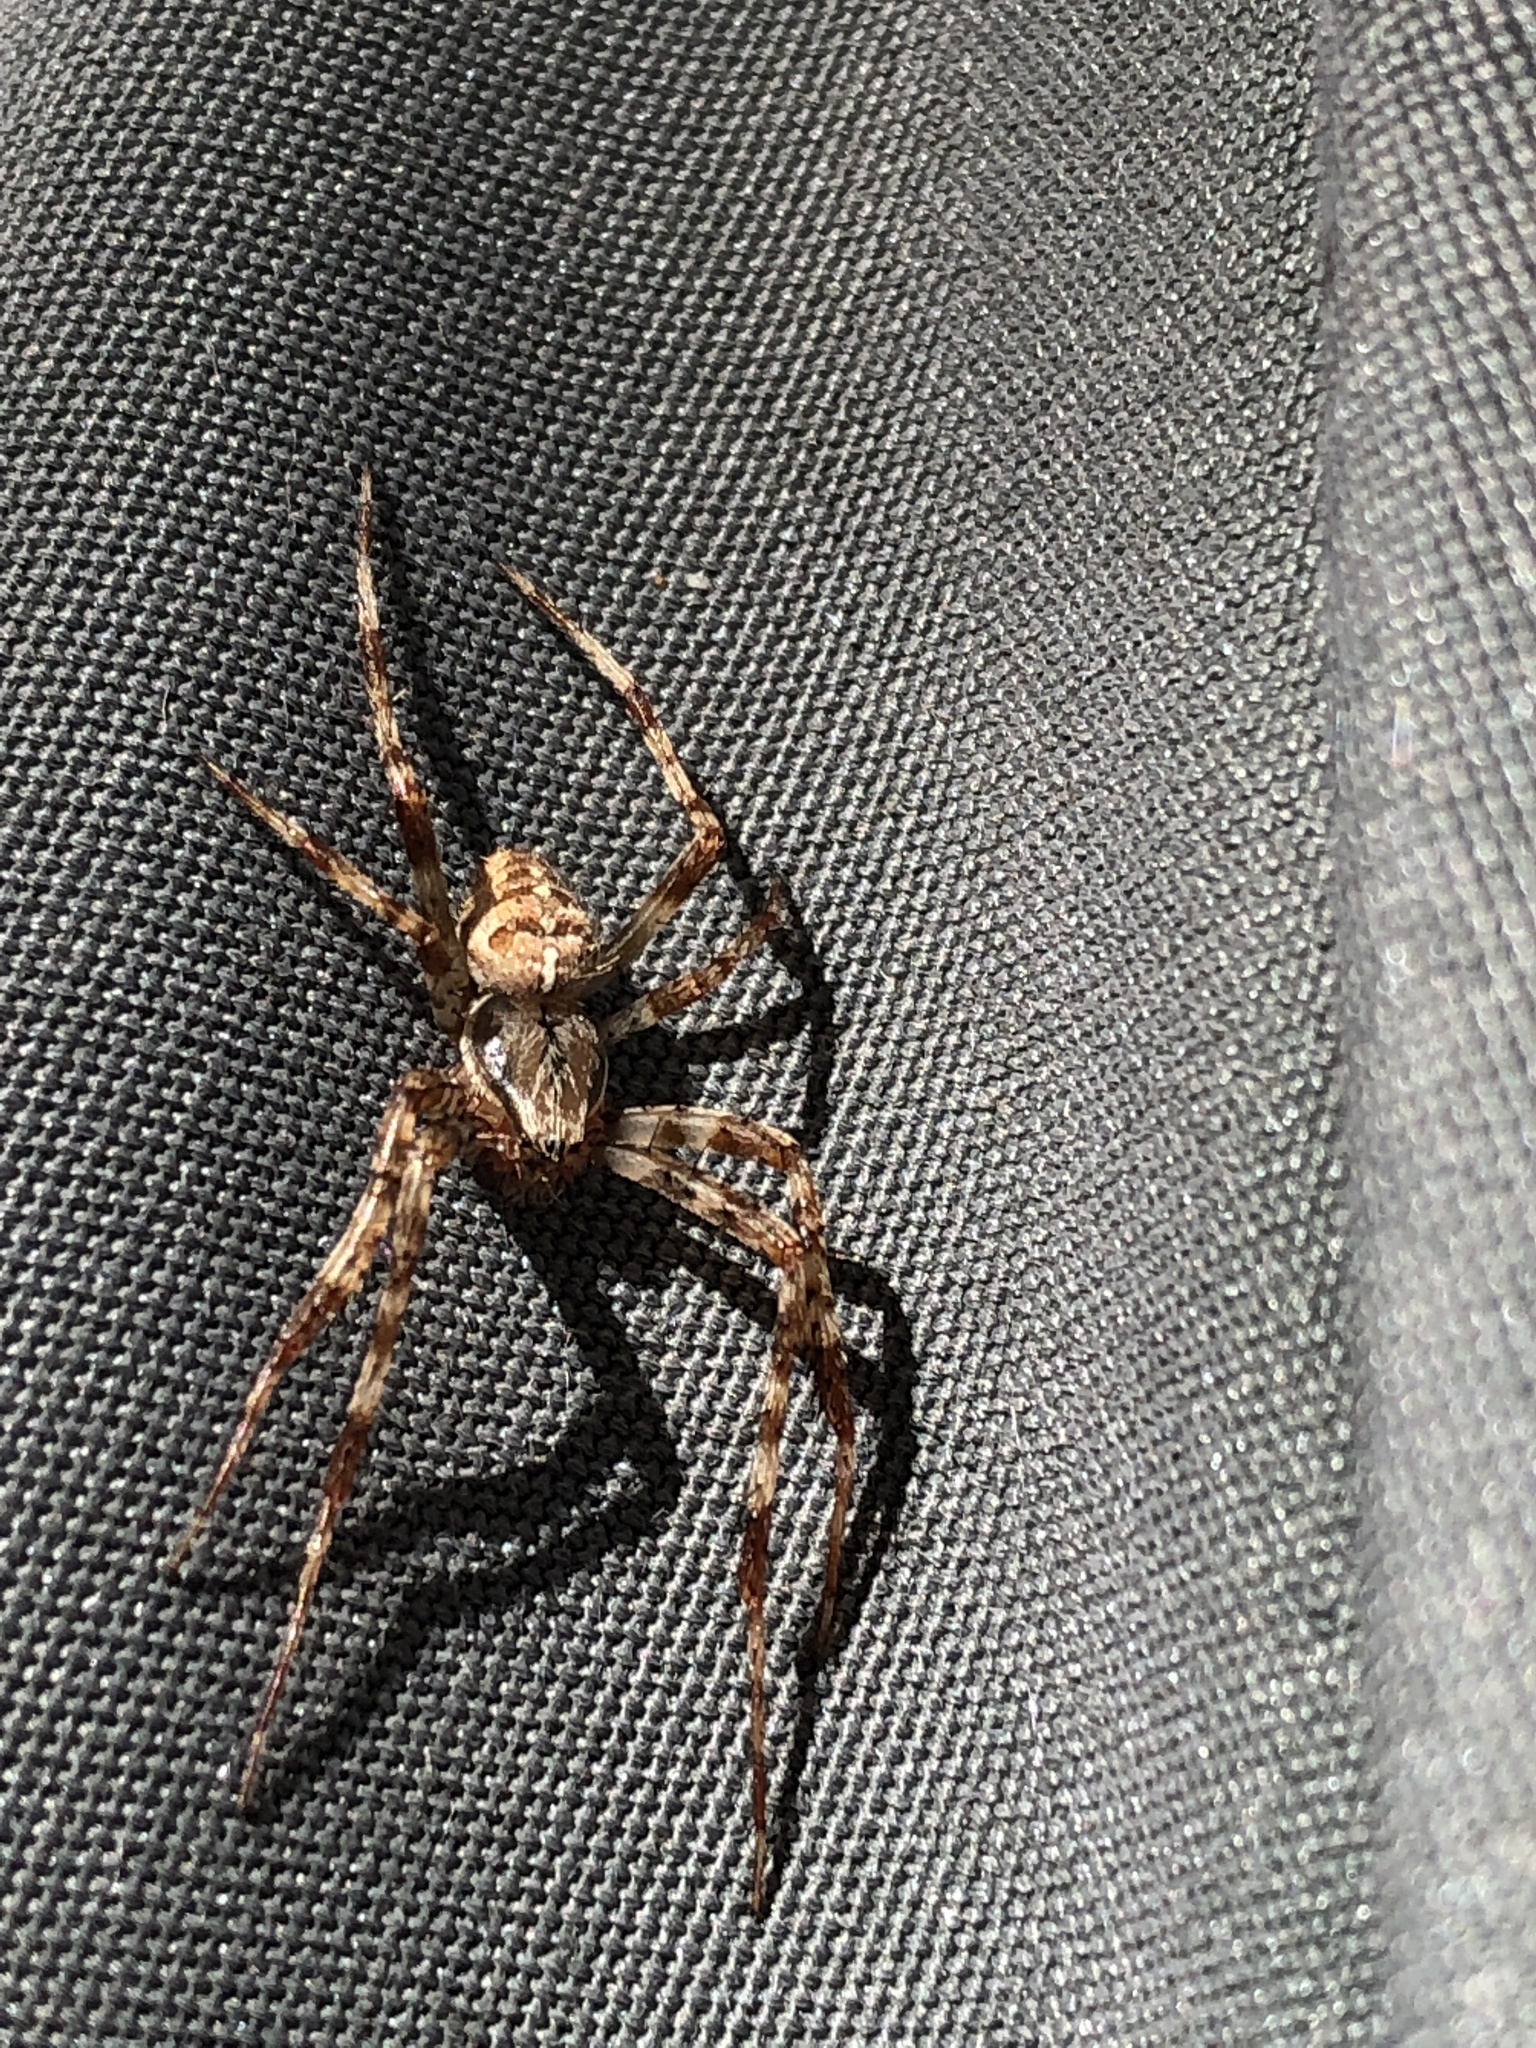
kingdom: Animalia
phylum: Arthropoda
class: Arachnida
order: Araneae
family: Araneidae
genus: Araneus
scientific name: Araneus diadematus
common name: Cross orbweaver
